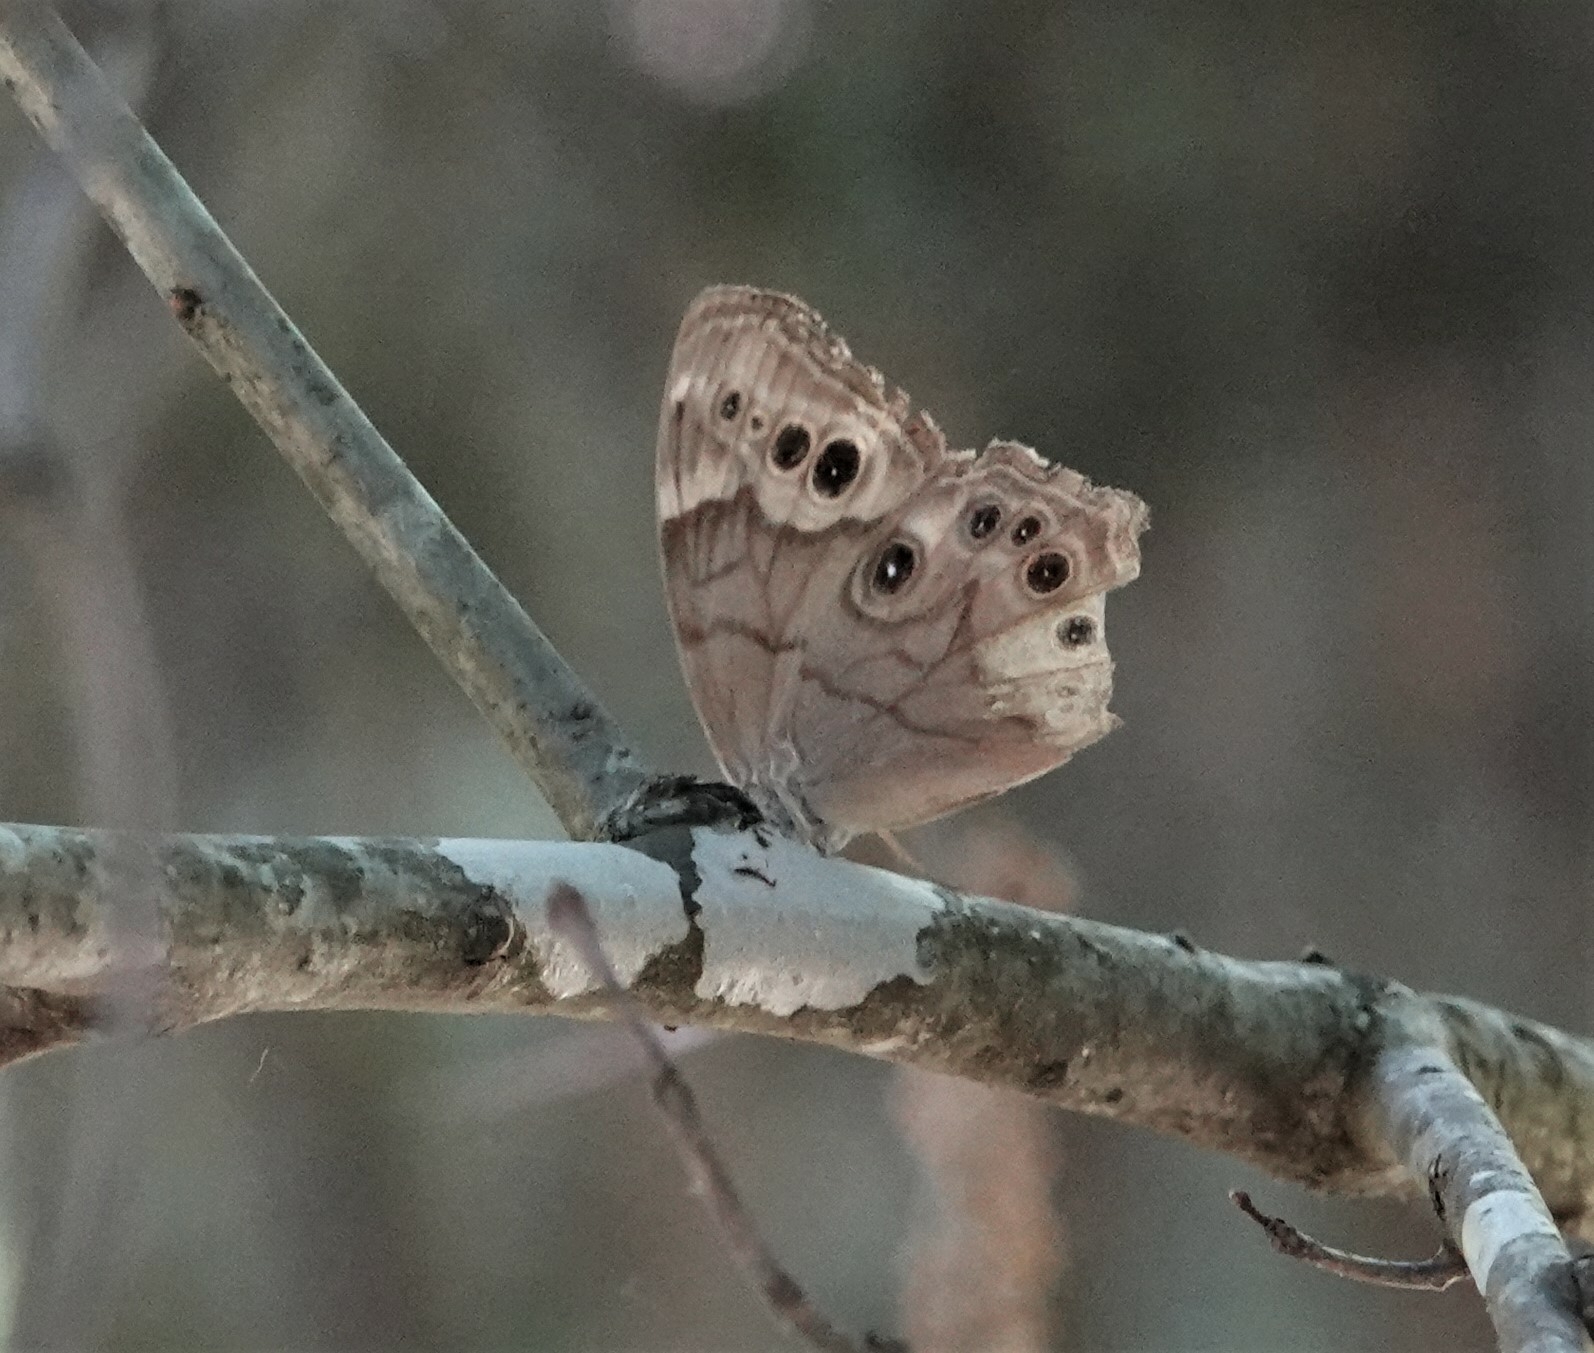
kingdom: Animalia
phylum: Arthropoda
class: Insecta
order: Lepidoptera
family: Nymphalidae
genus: Lethe
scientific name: Lethe anthedon
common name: Northern pearly-eye
